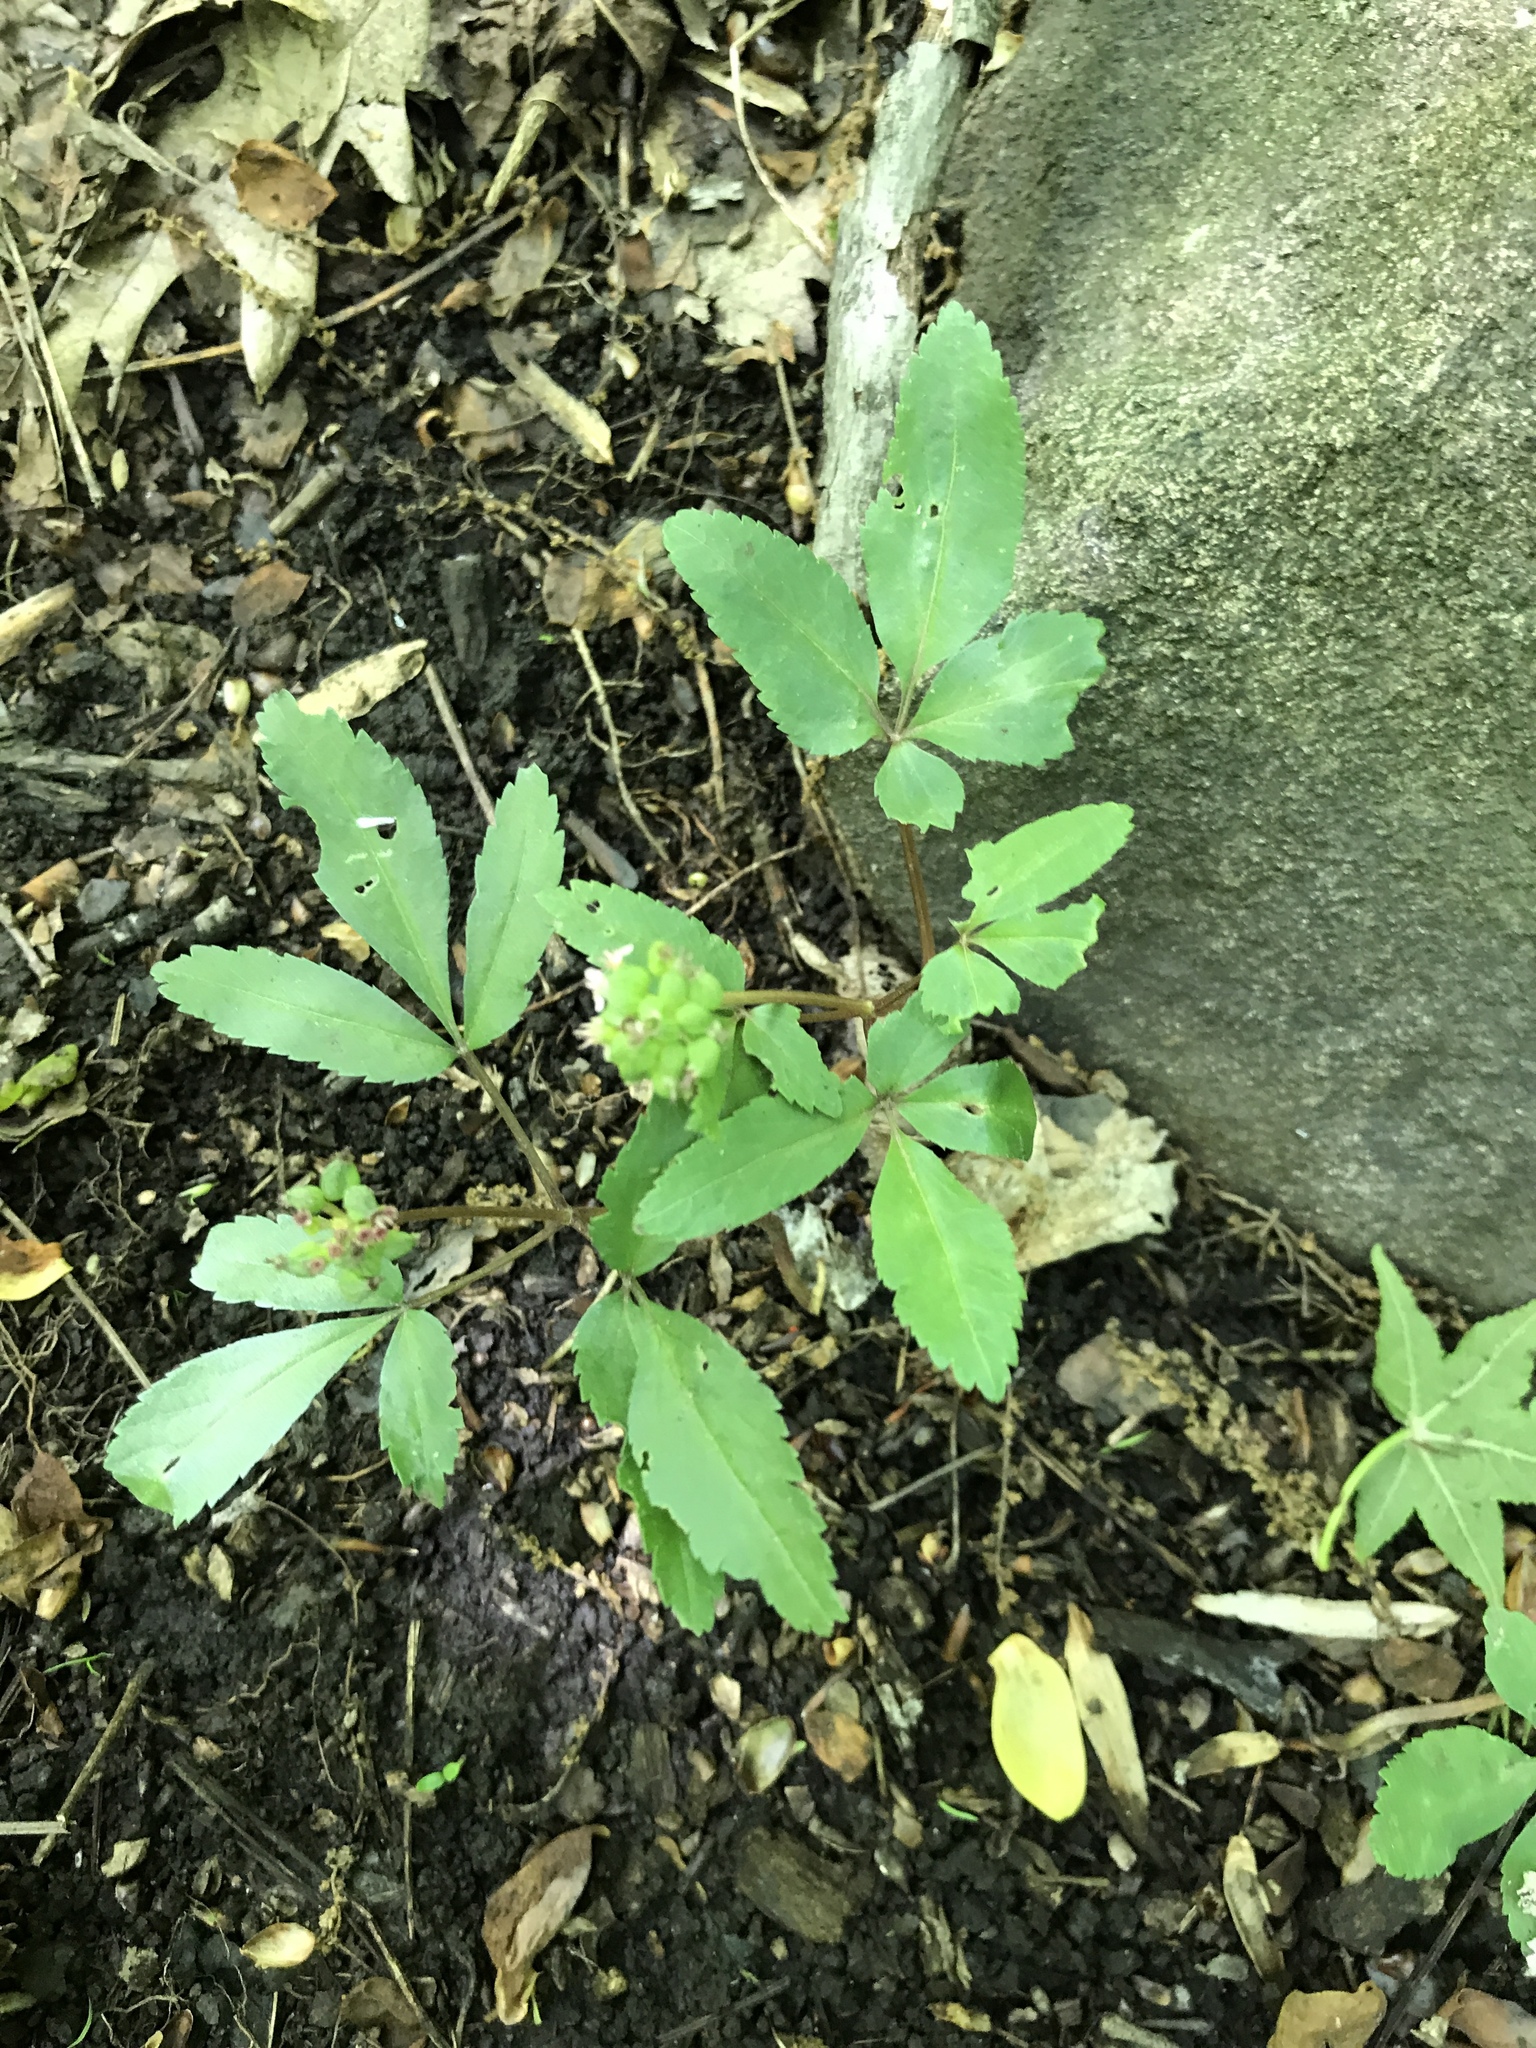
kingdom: Plantae
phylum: Tracheophyta
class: Magnoliopsida
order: Apiales
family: Araliaceae
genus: Panax
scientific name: Panax trifolius
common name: Dwarf ginseng
